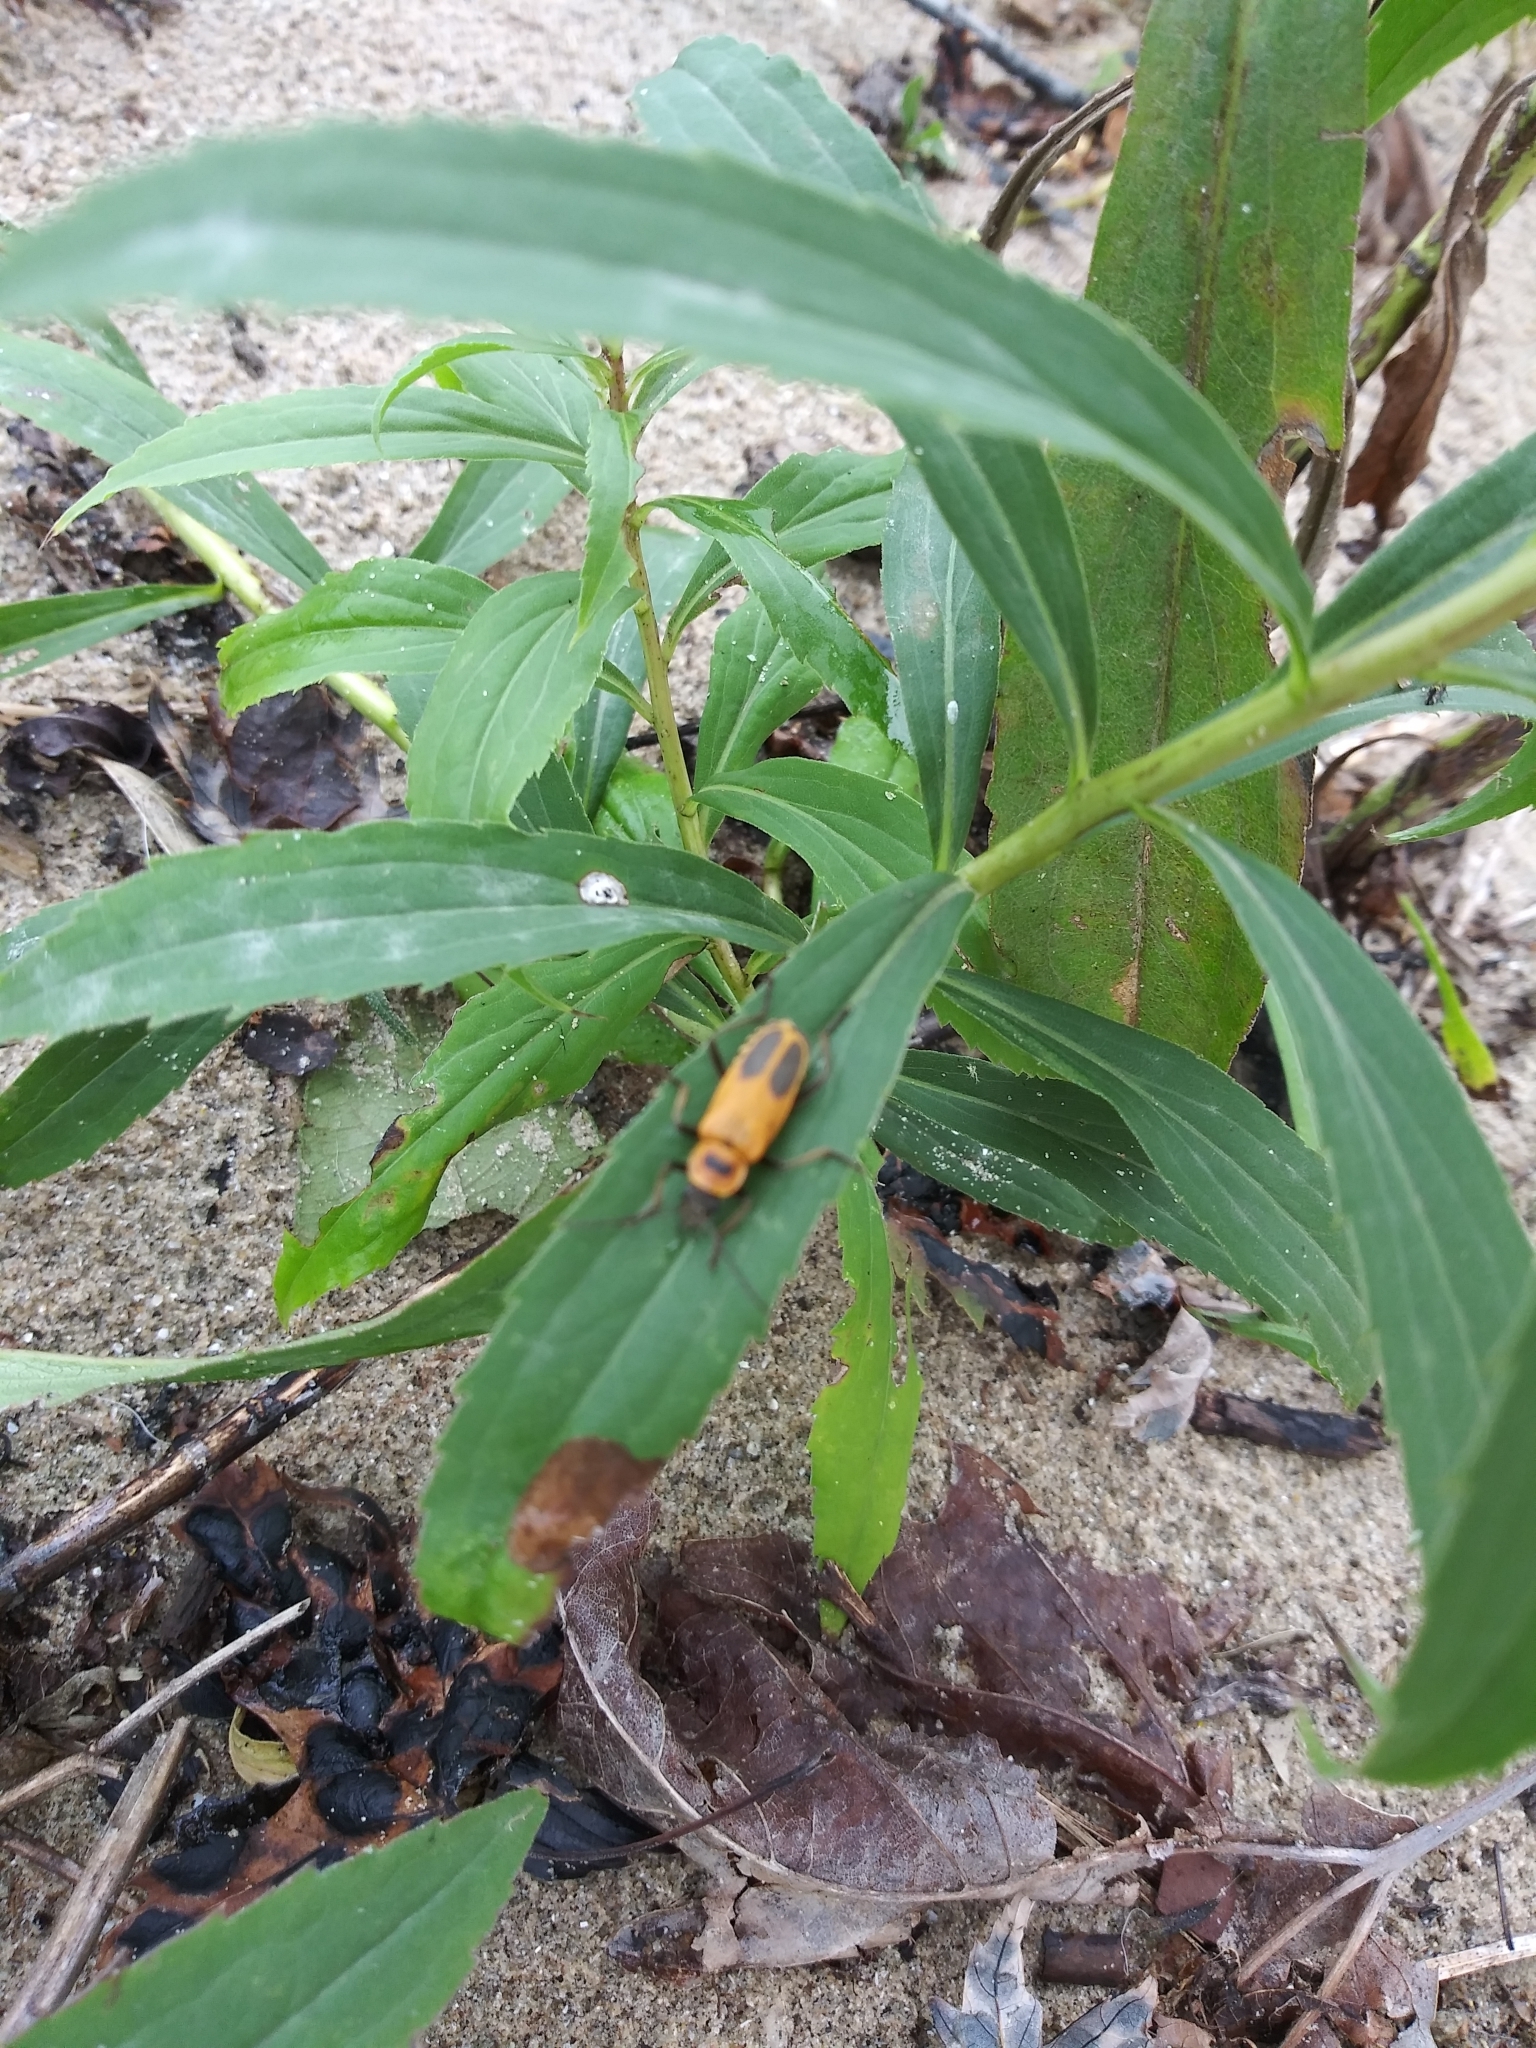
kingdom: Animalia
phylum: Arthropoda
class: Insecta
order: Coleoptera
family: Cantharidae
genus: Chauliognathus
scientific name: Chauliognathus pensylvanicus
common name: Goldenrod soldier beetle
